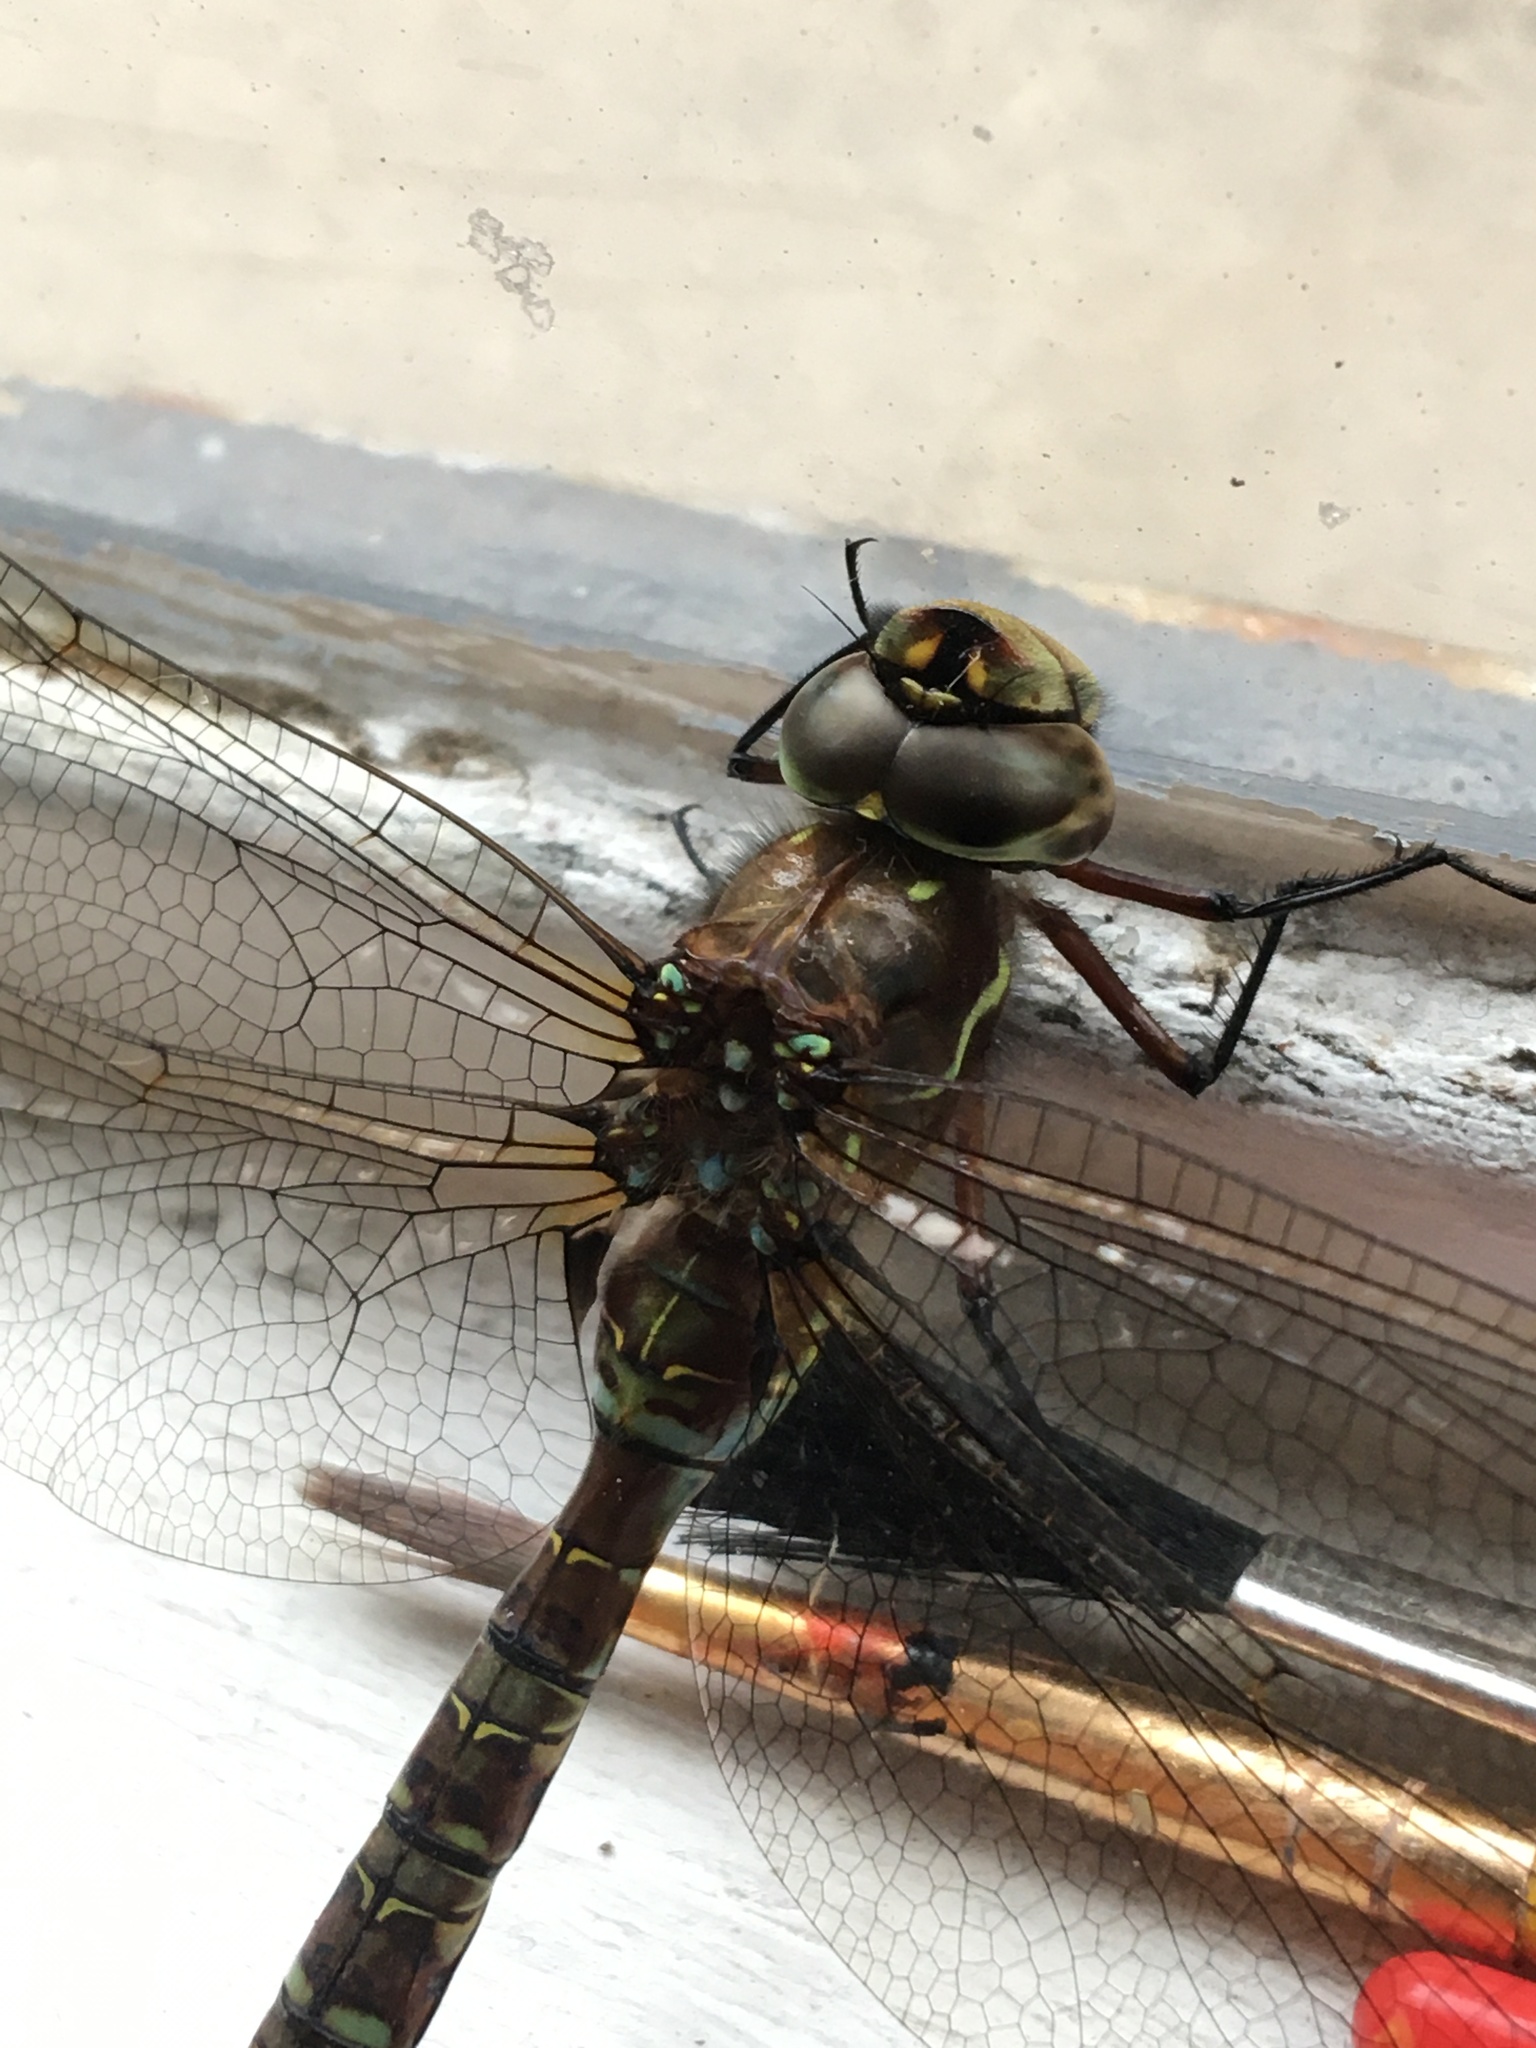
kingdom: Animalia
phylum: Arthropoda
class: Insecta
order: Odonata
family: Aeshnidae
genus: Rhionaeschna
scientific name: Rhionaeschna marchali
